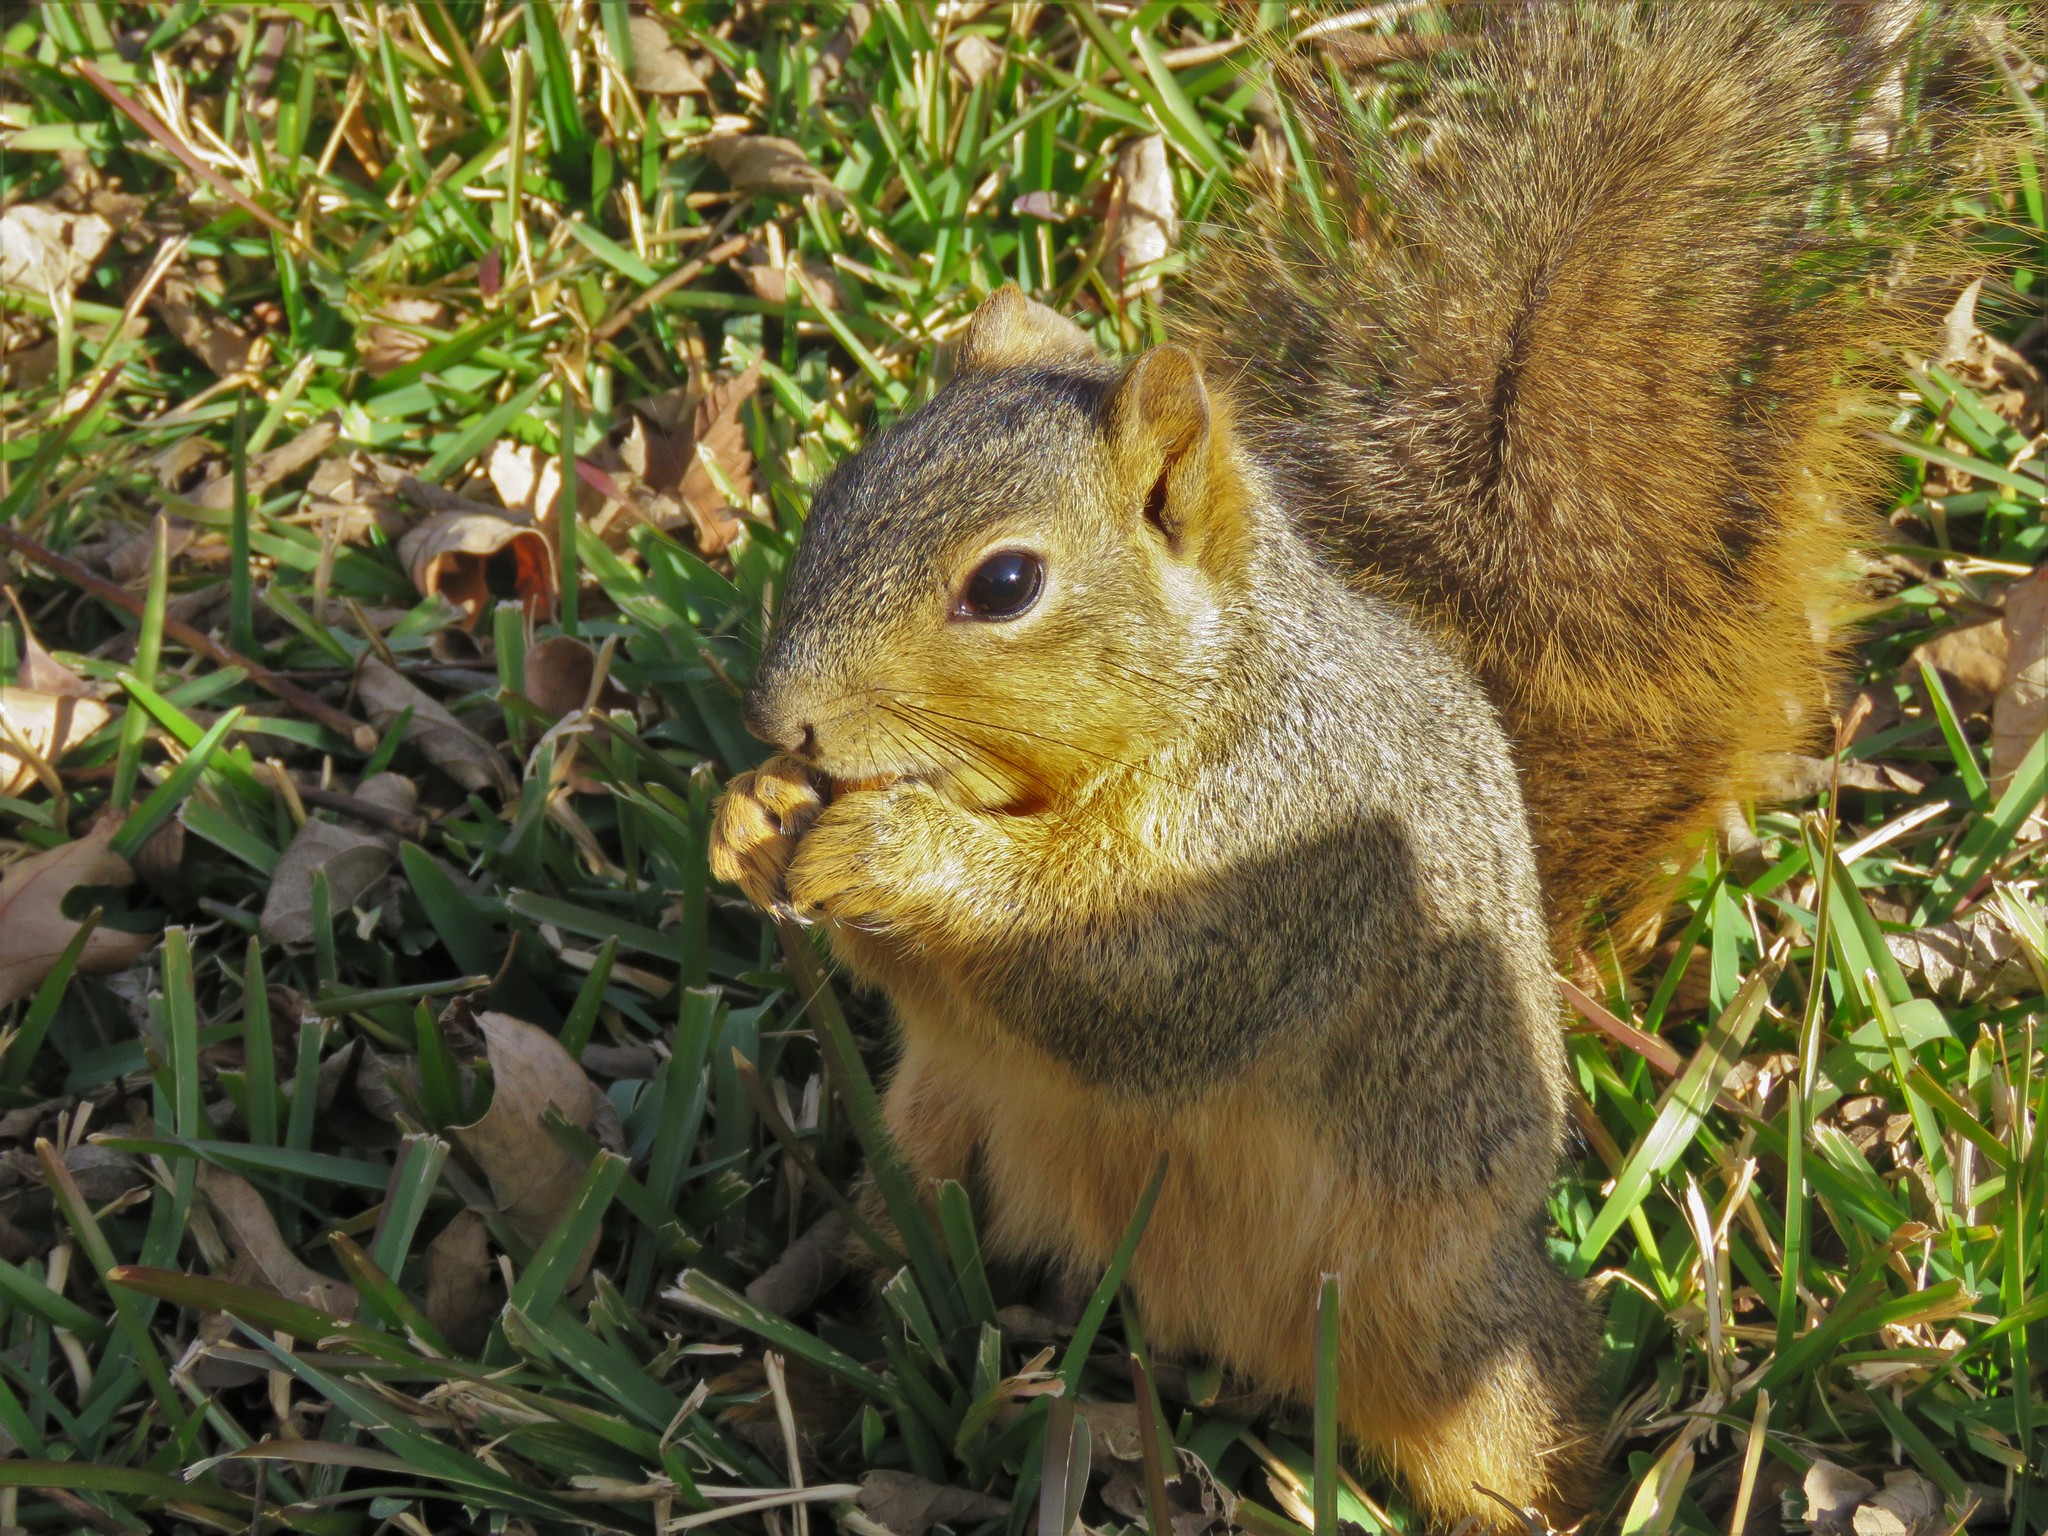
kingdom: Animalia
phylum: Chordata
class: Mammalia
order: Rodentia
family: Sciuridae
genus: Sciurus
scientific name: Sciurus niger
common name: Fox squirrel
